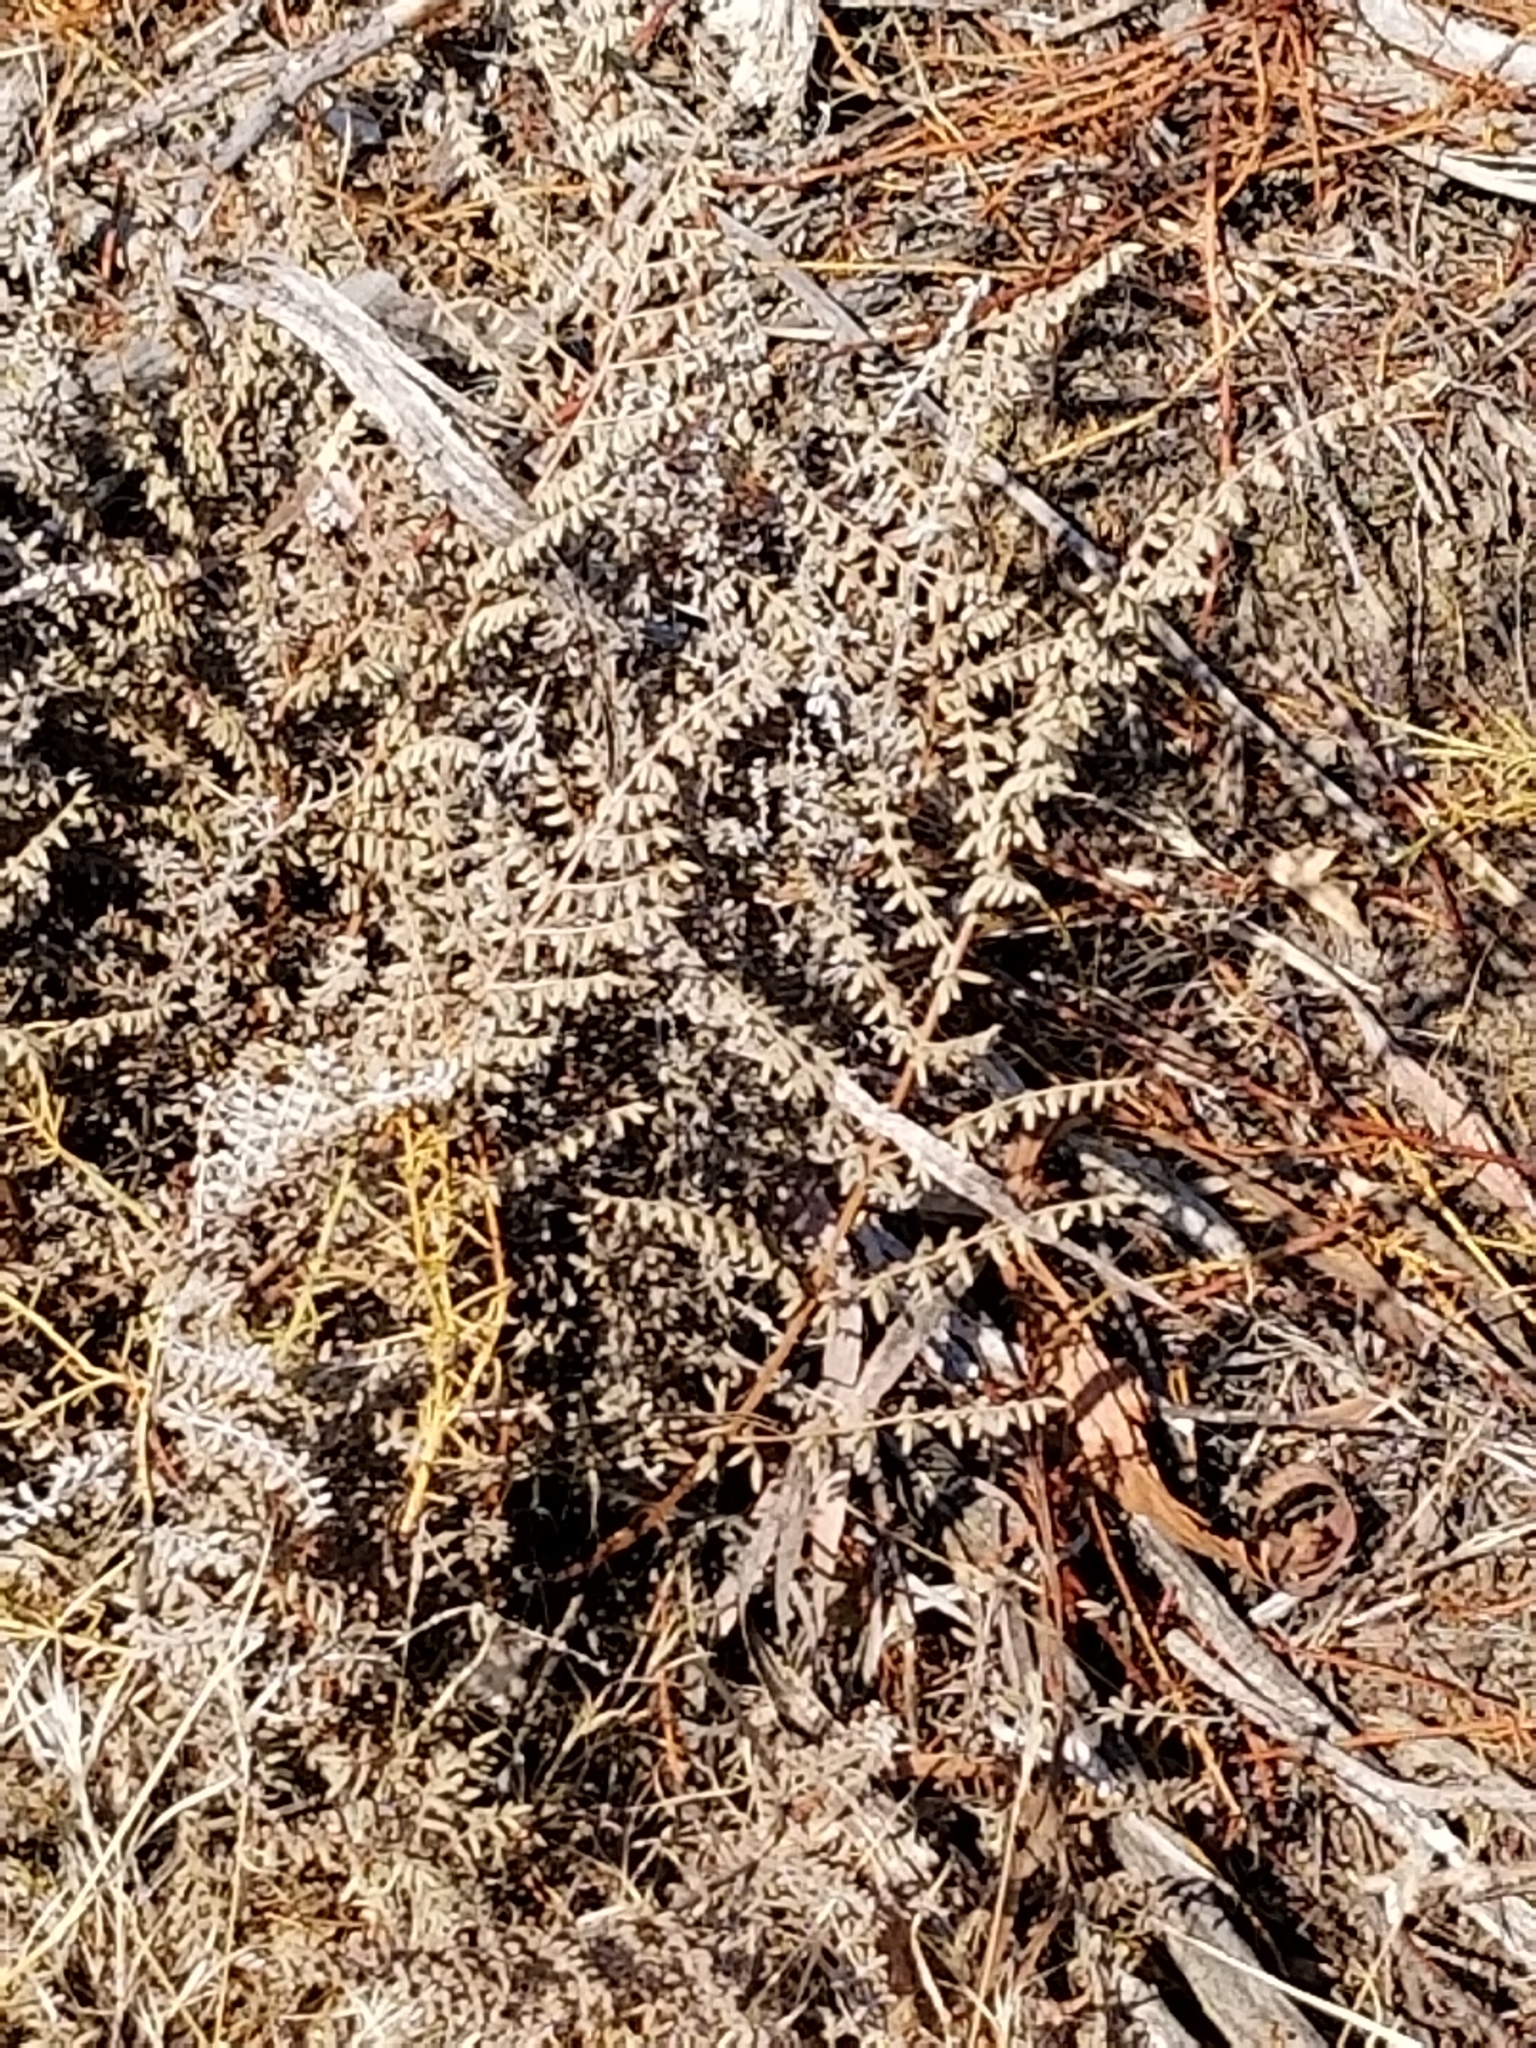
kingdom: Plantae
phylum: Tracheophyta
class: Polypodiopsida
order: Polypodiales
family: Pteridaceae
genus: Pellaea
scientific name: Pellaea mucronata
